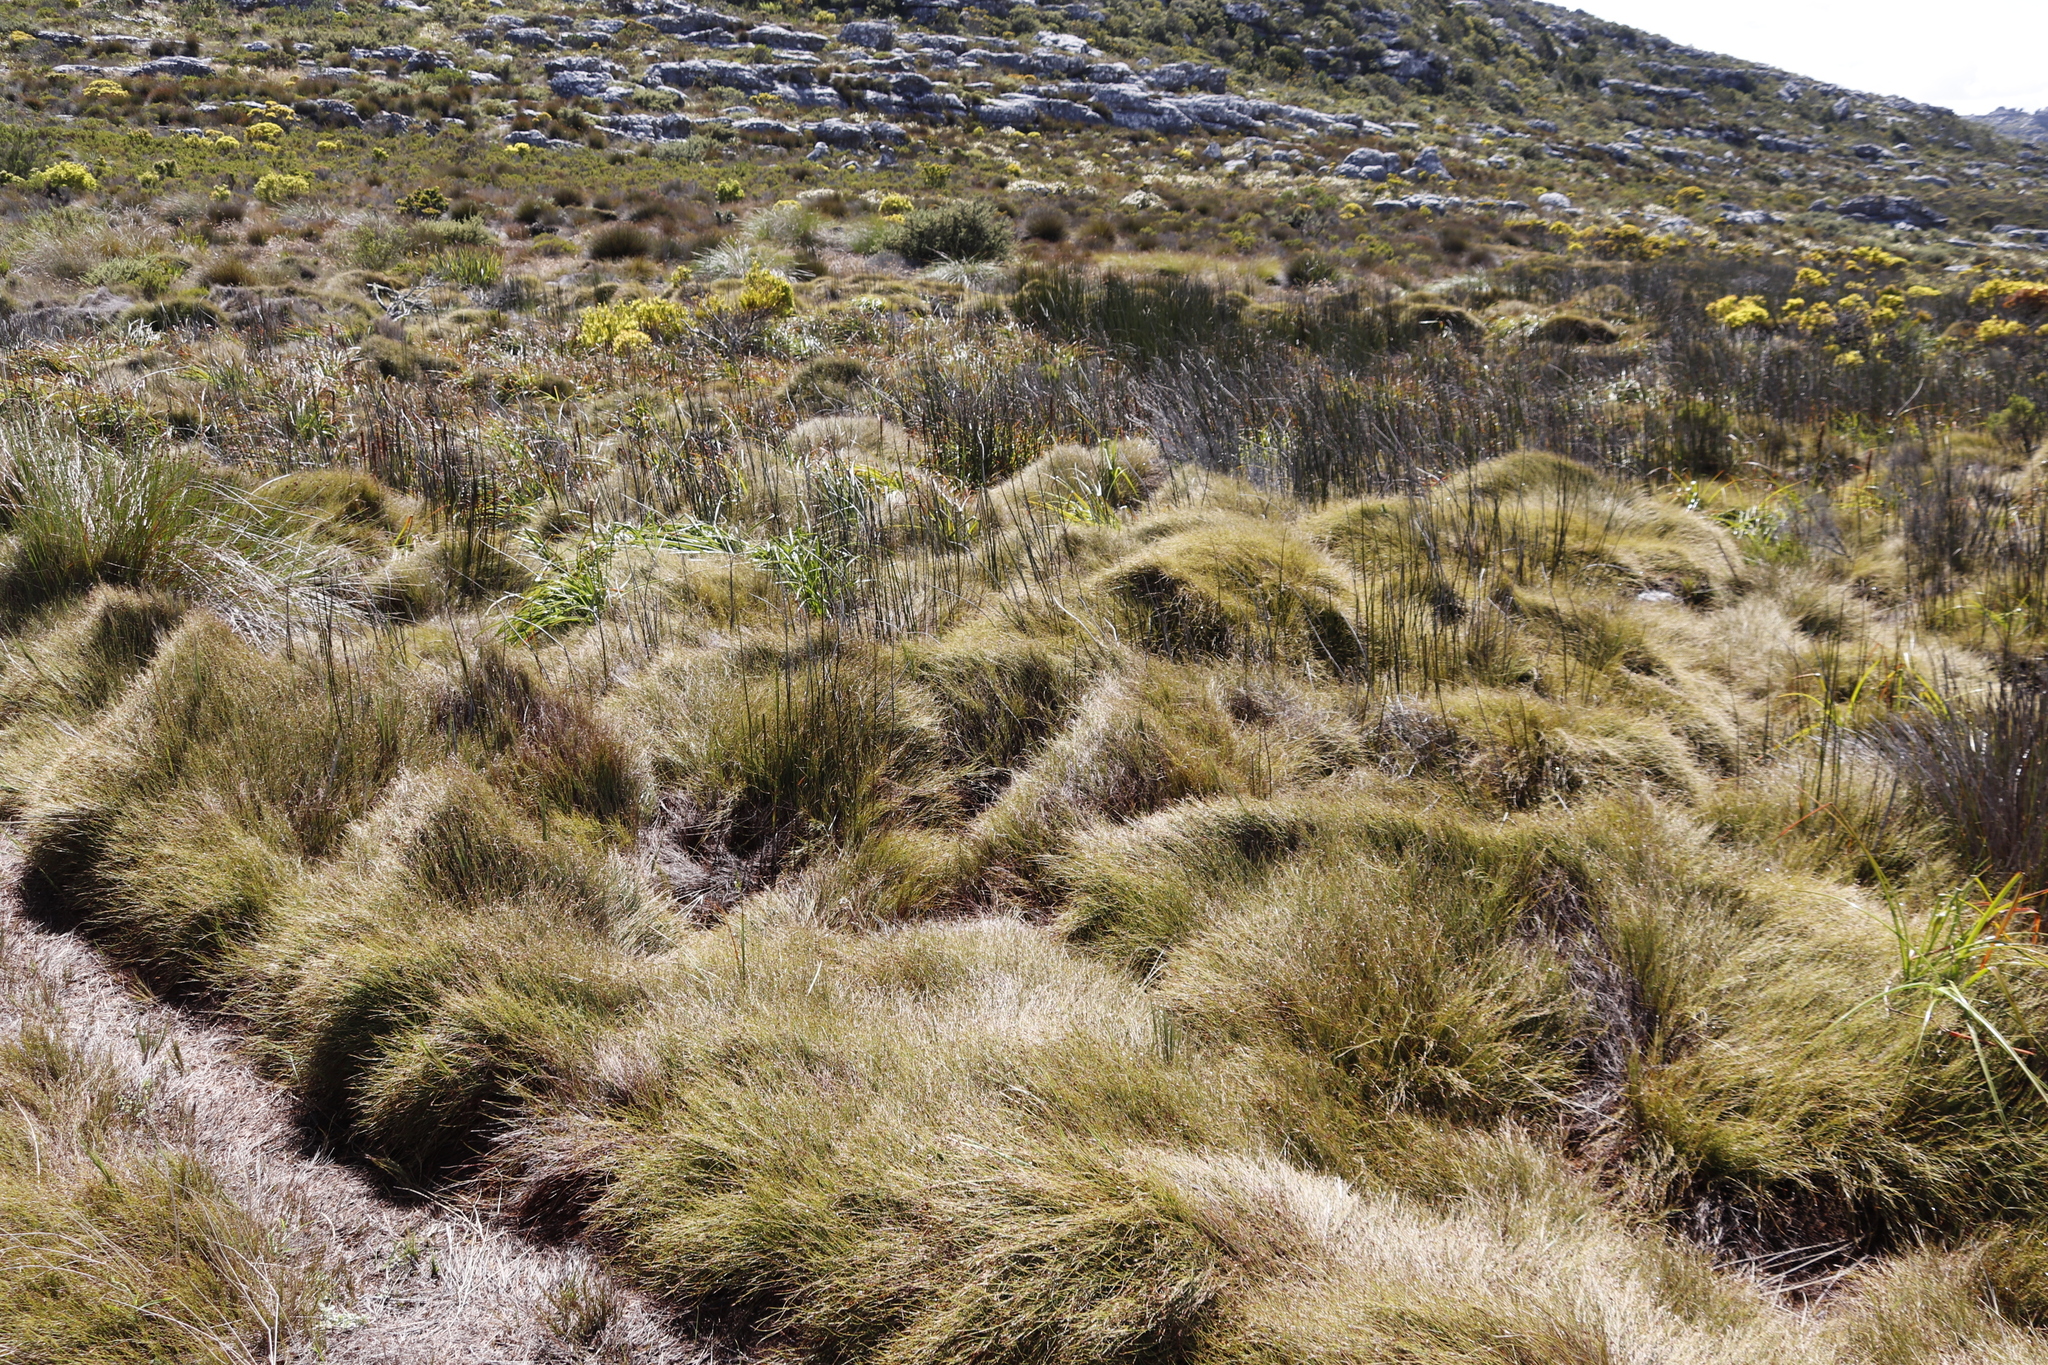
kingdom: Plantae
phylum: Tracheophyta
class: Liliopsida
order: Poales
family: Restionaceae
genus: Anthochortus
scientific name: Anthochortus crinalis
